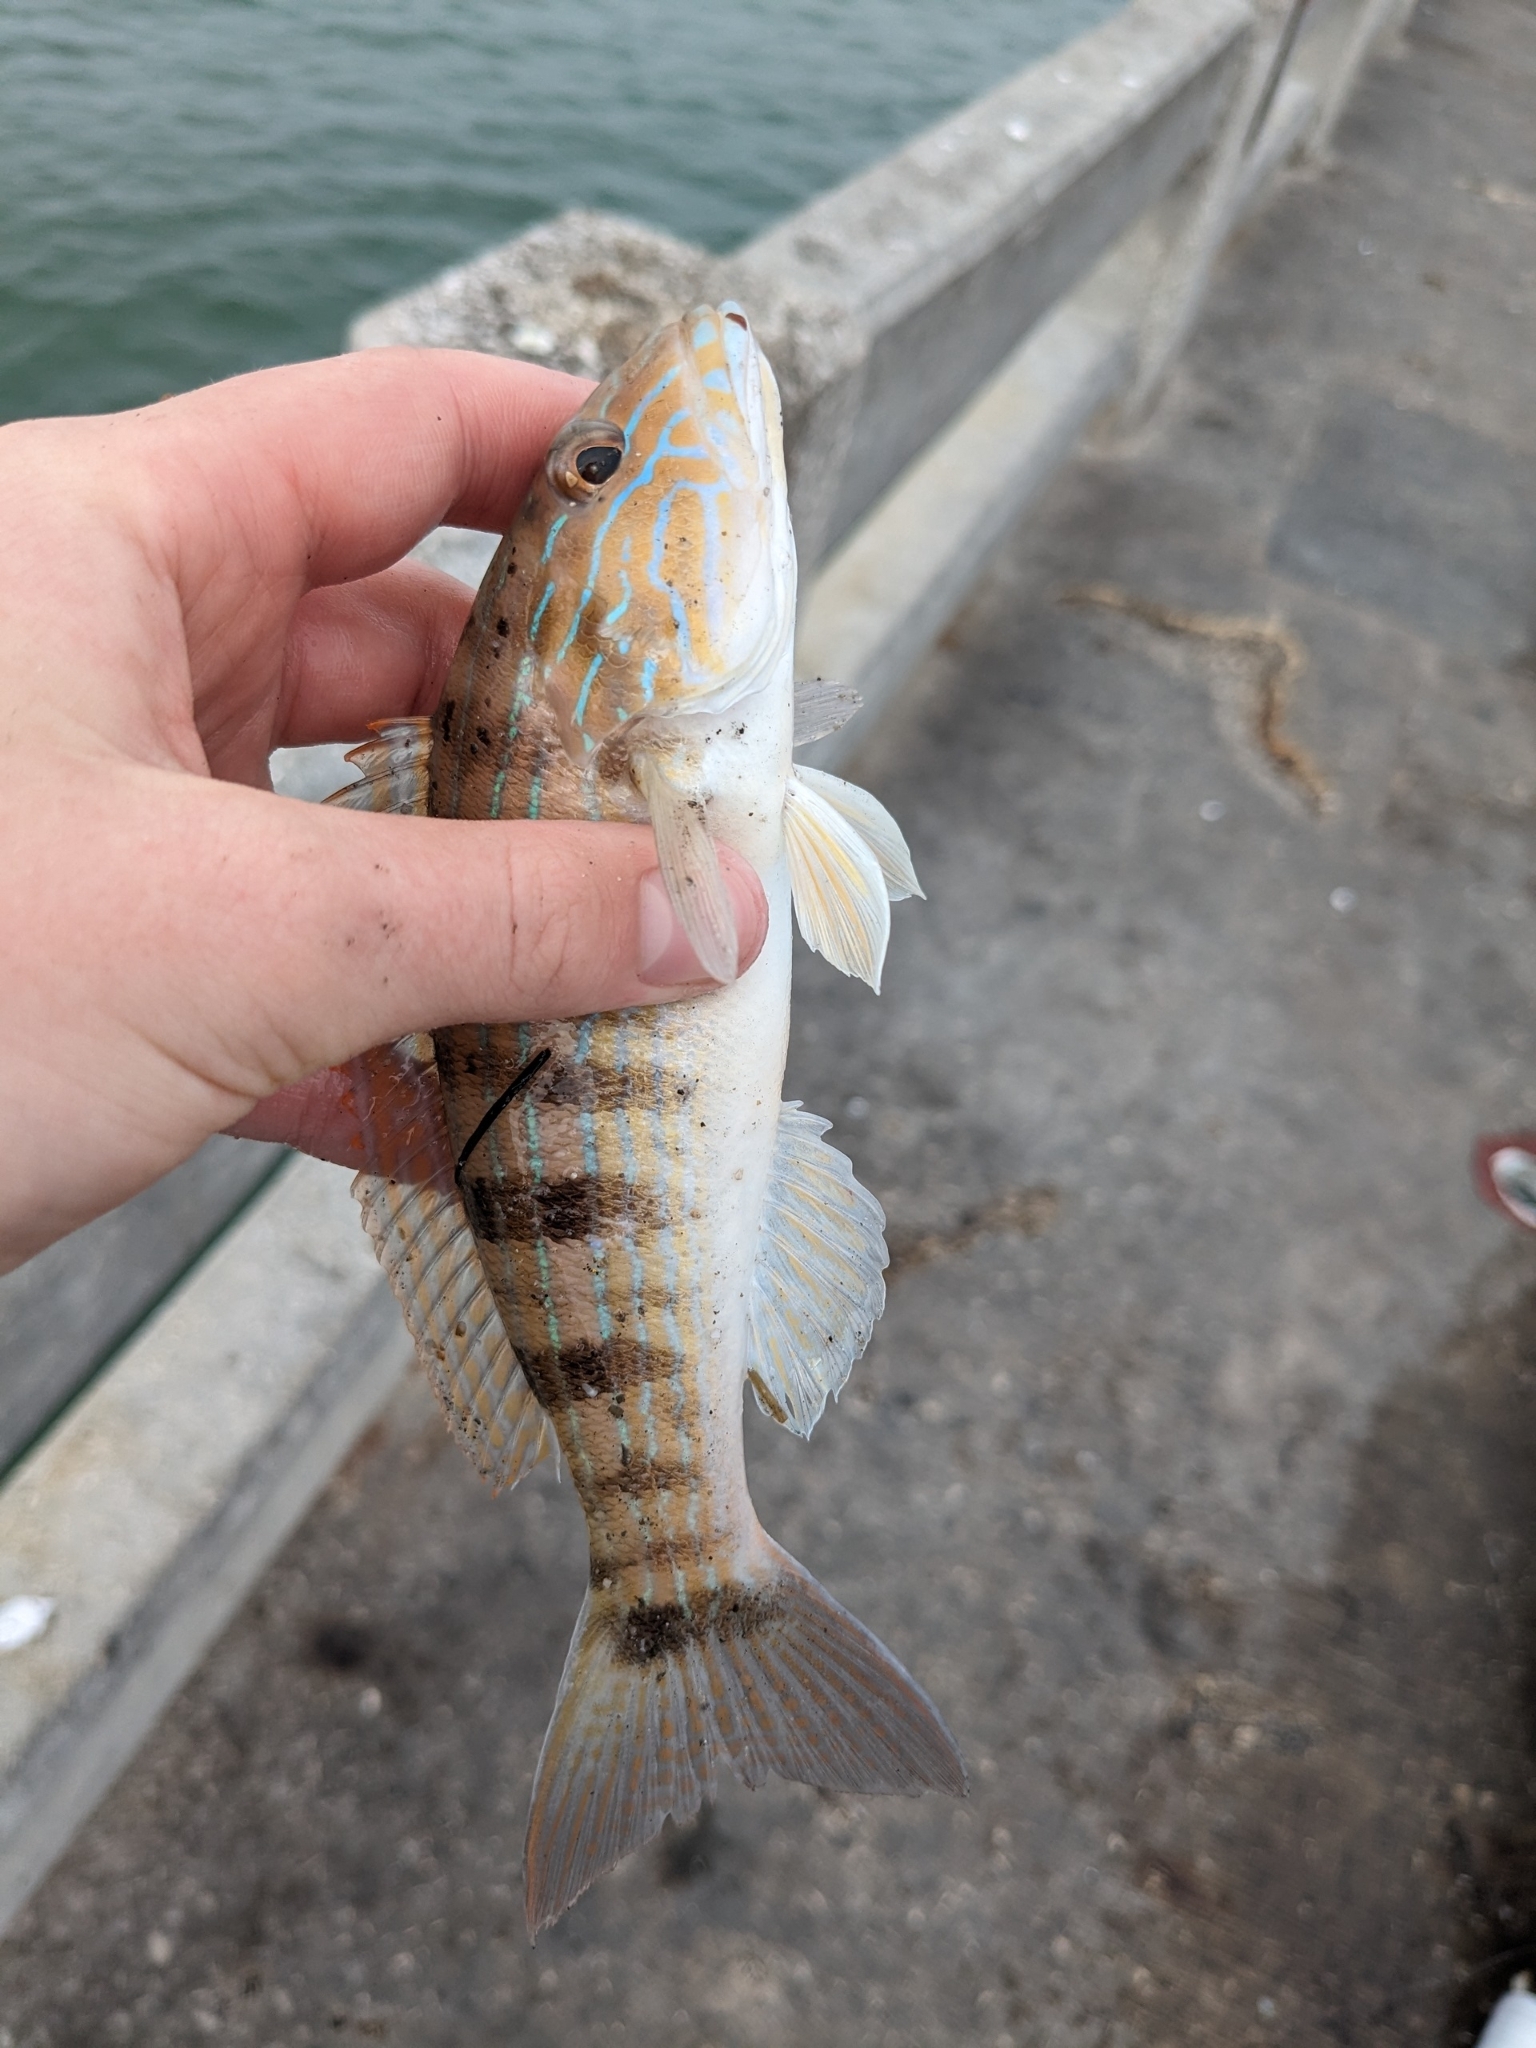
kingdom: Animalia
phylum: Chordata
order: Perciformes
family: Serranidae
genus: Diplectrum
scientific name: Diplectrum formosum
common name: Sand perch
